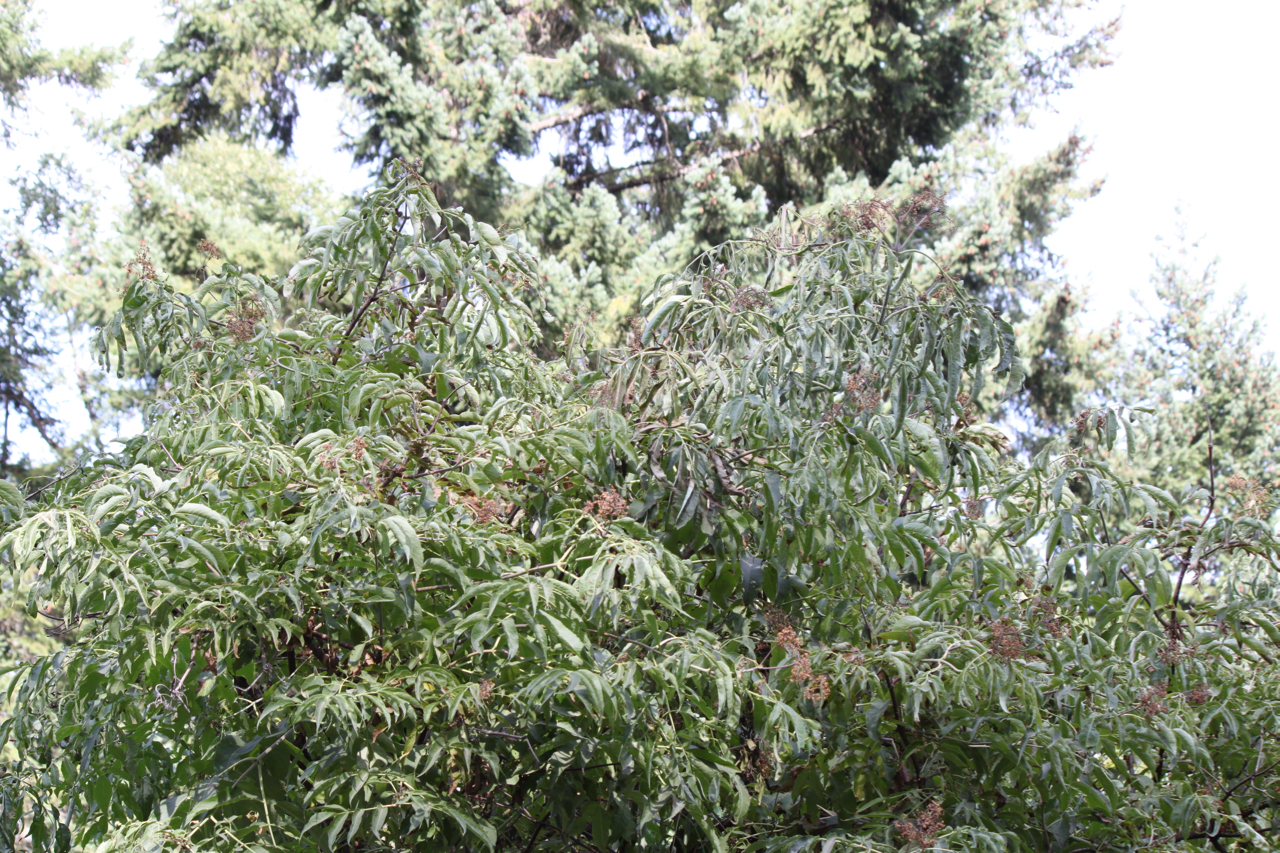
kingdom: Plantae
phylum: Tracheophyta
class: Magnoliopsida
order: Dipsacales
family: Viburnaceae
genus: Sambucus
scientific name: Sambucus racemosa
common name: Red-berried elder
